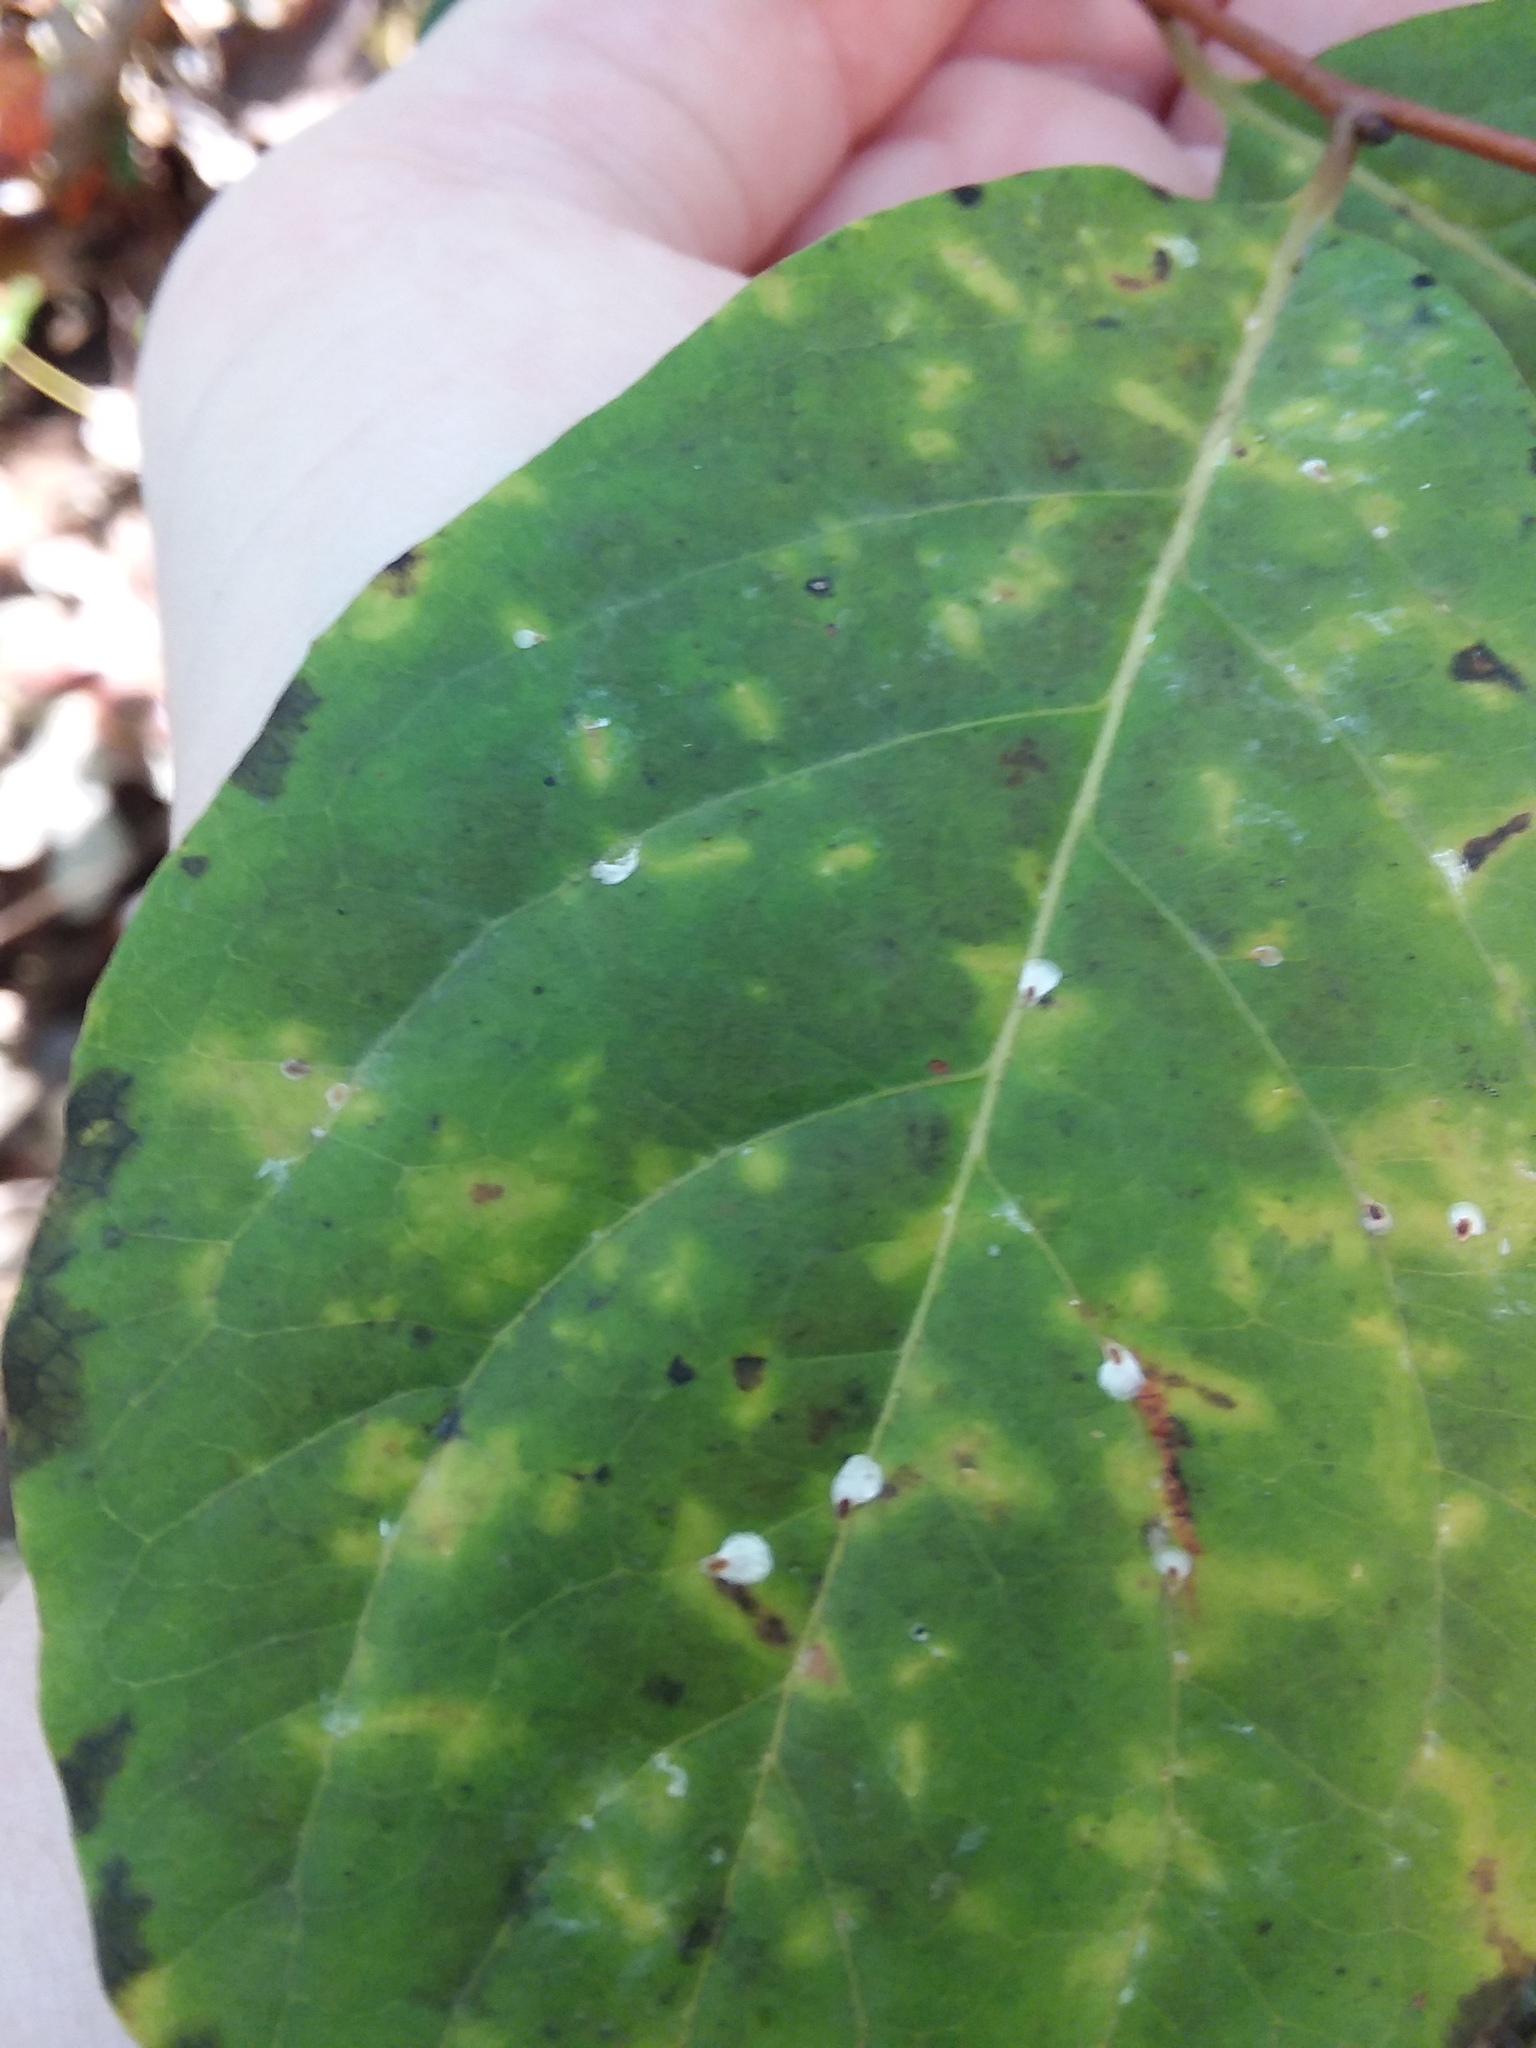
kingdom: Animalia
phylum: Arthropoda
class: Insecta
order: Hemiptera
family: Diaspididae
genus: Pseudaulacaspis
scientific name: Pseudaulacaspis cockerelli
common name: False oleander scale
